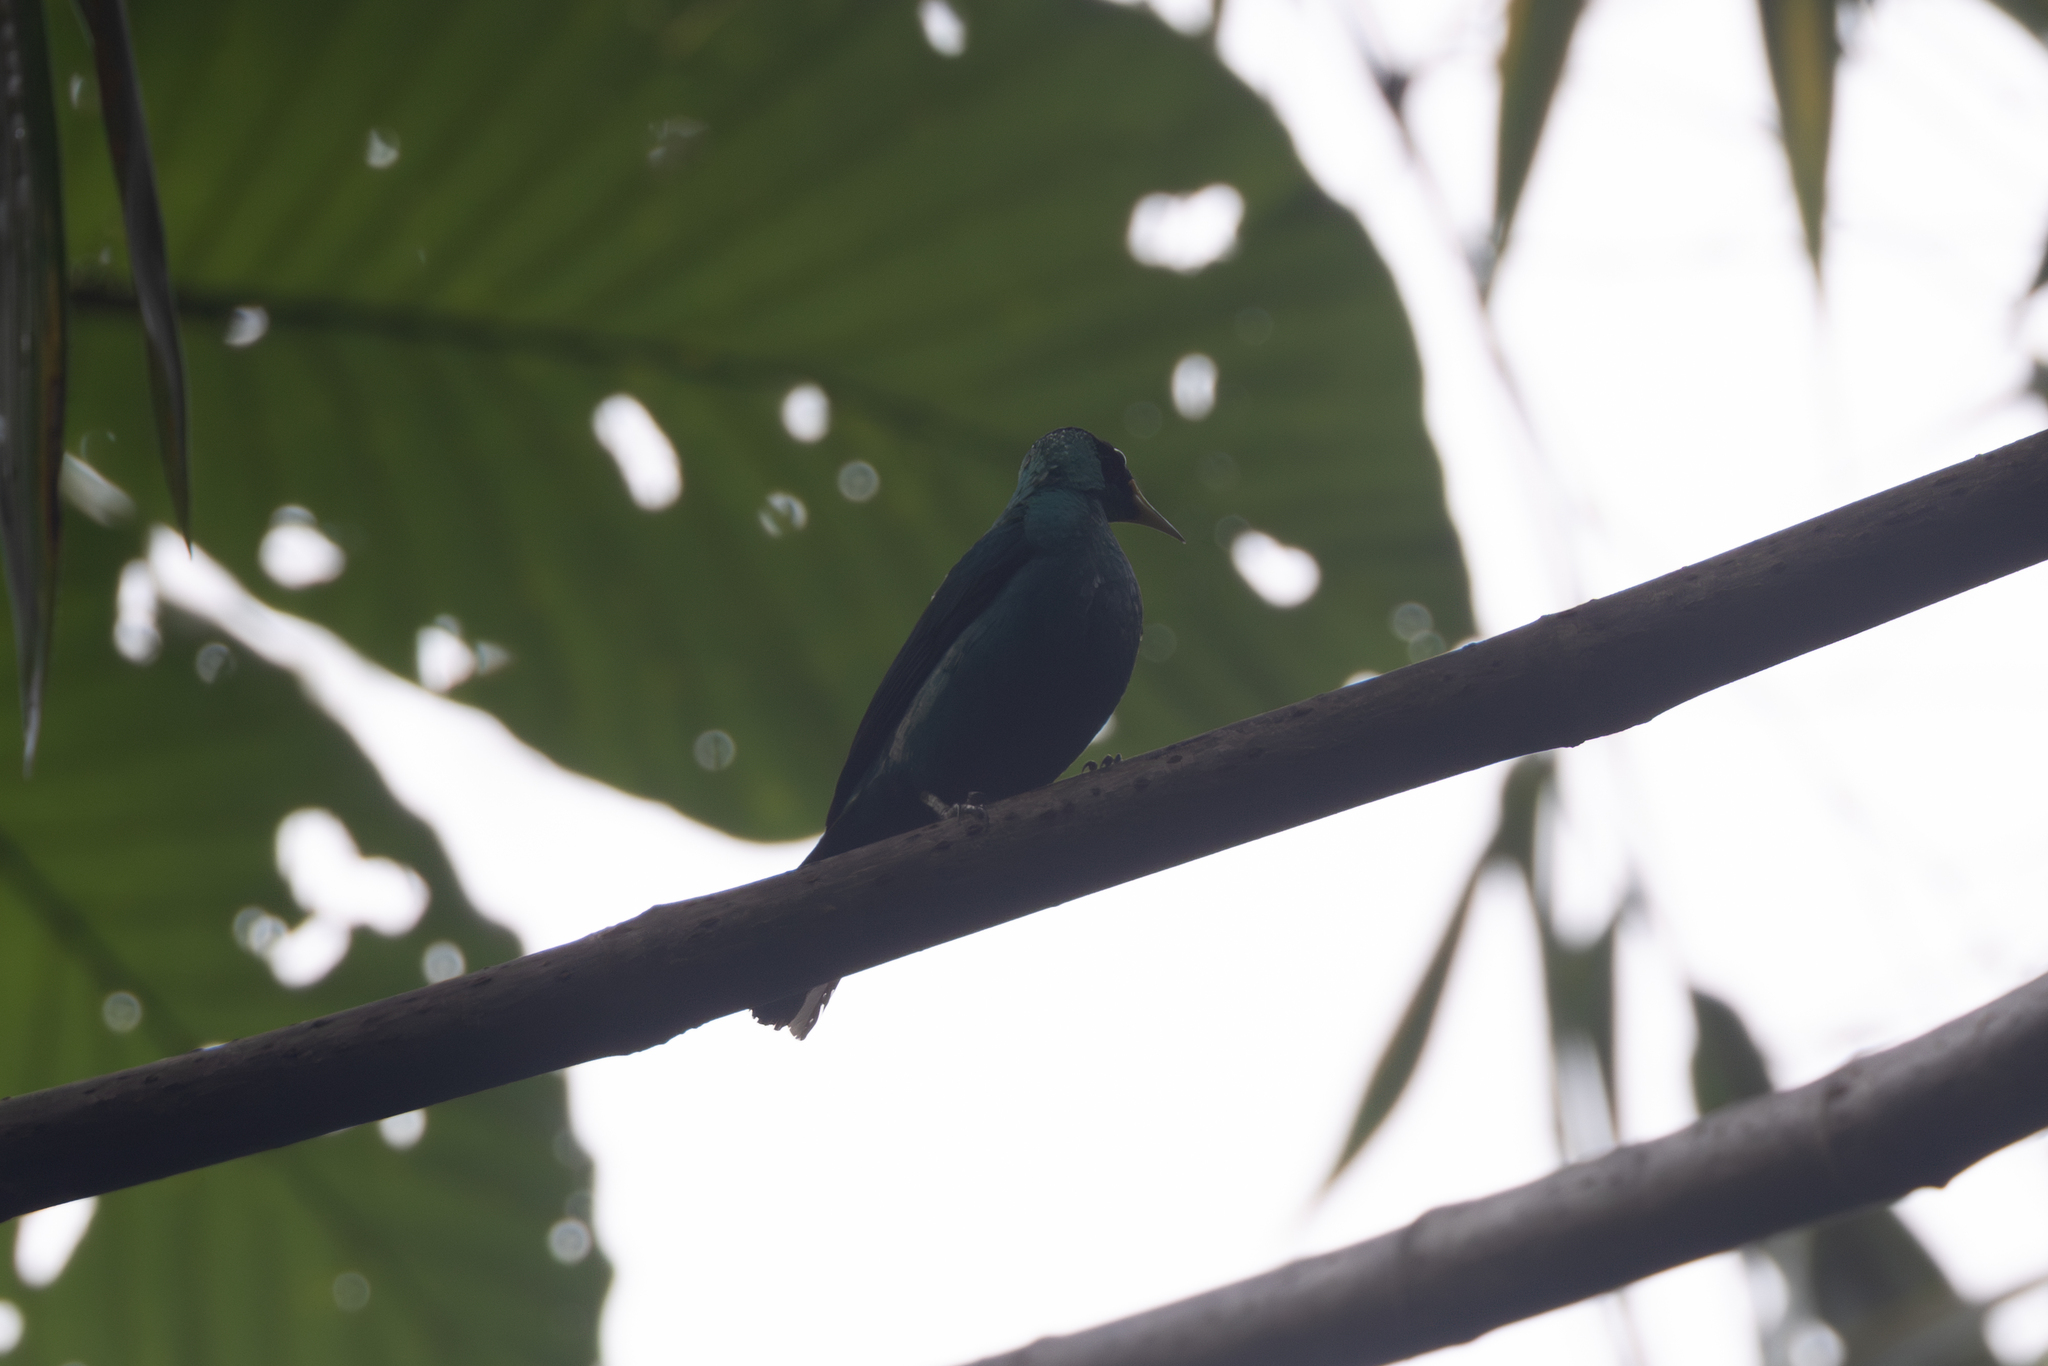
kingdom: Animalia
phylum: Chordata
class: Aves
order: Passeriformes
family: Thraupidae
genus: Chlorophanes
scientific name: Chlorophanes spiza
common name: Green honeycreeper
